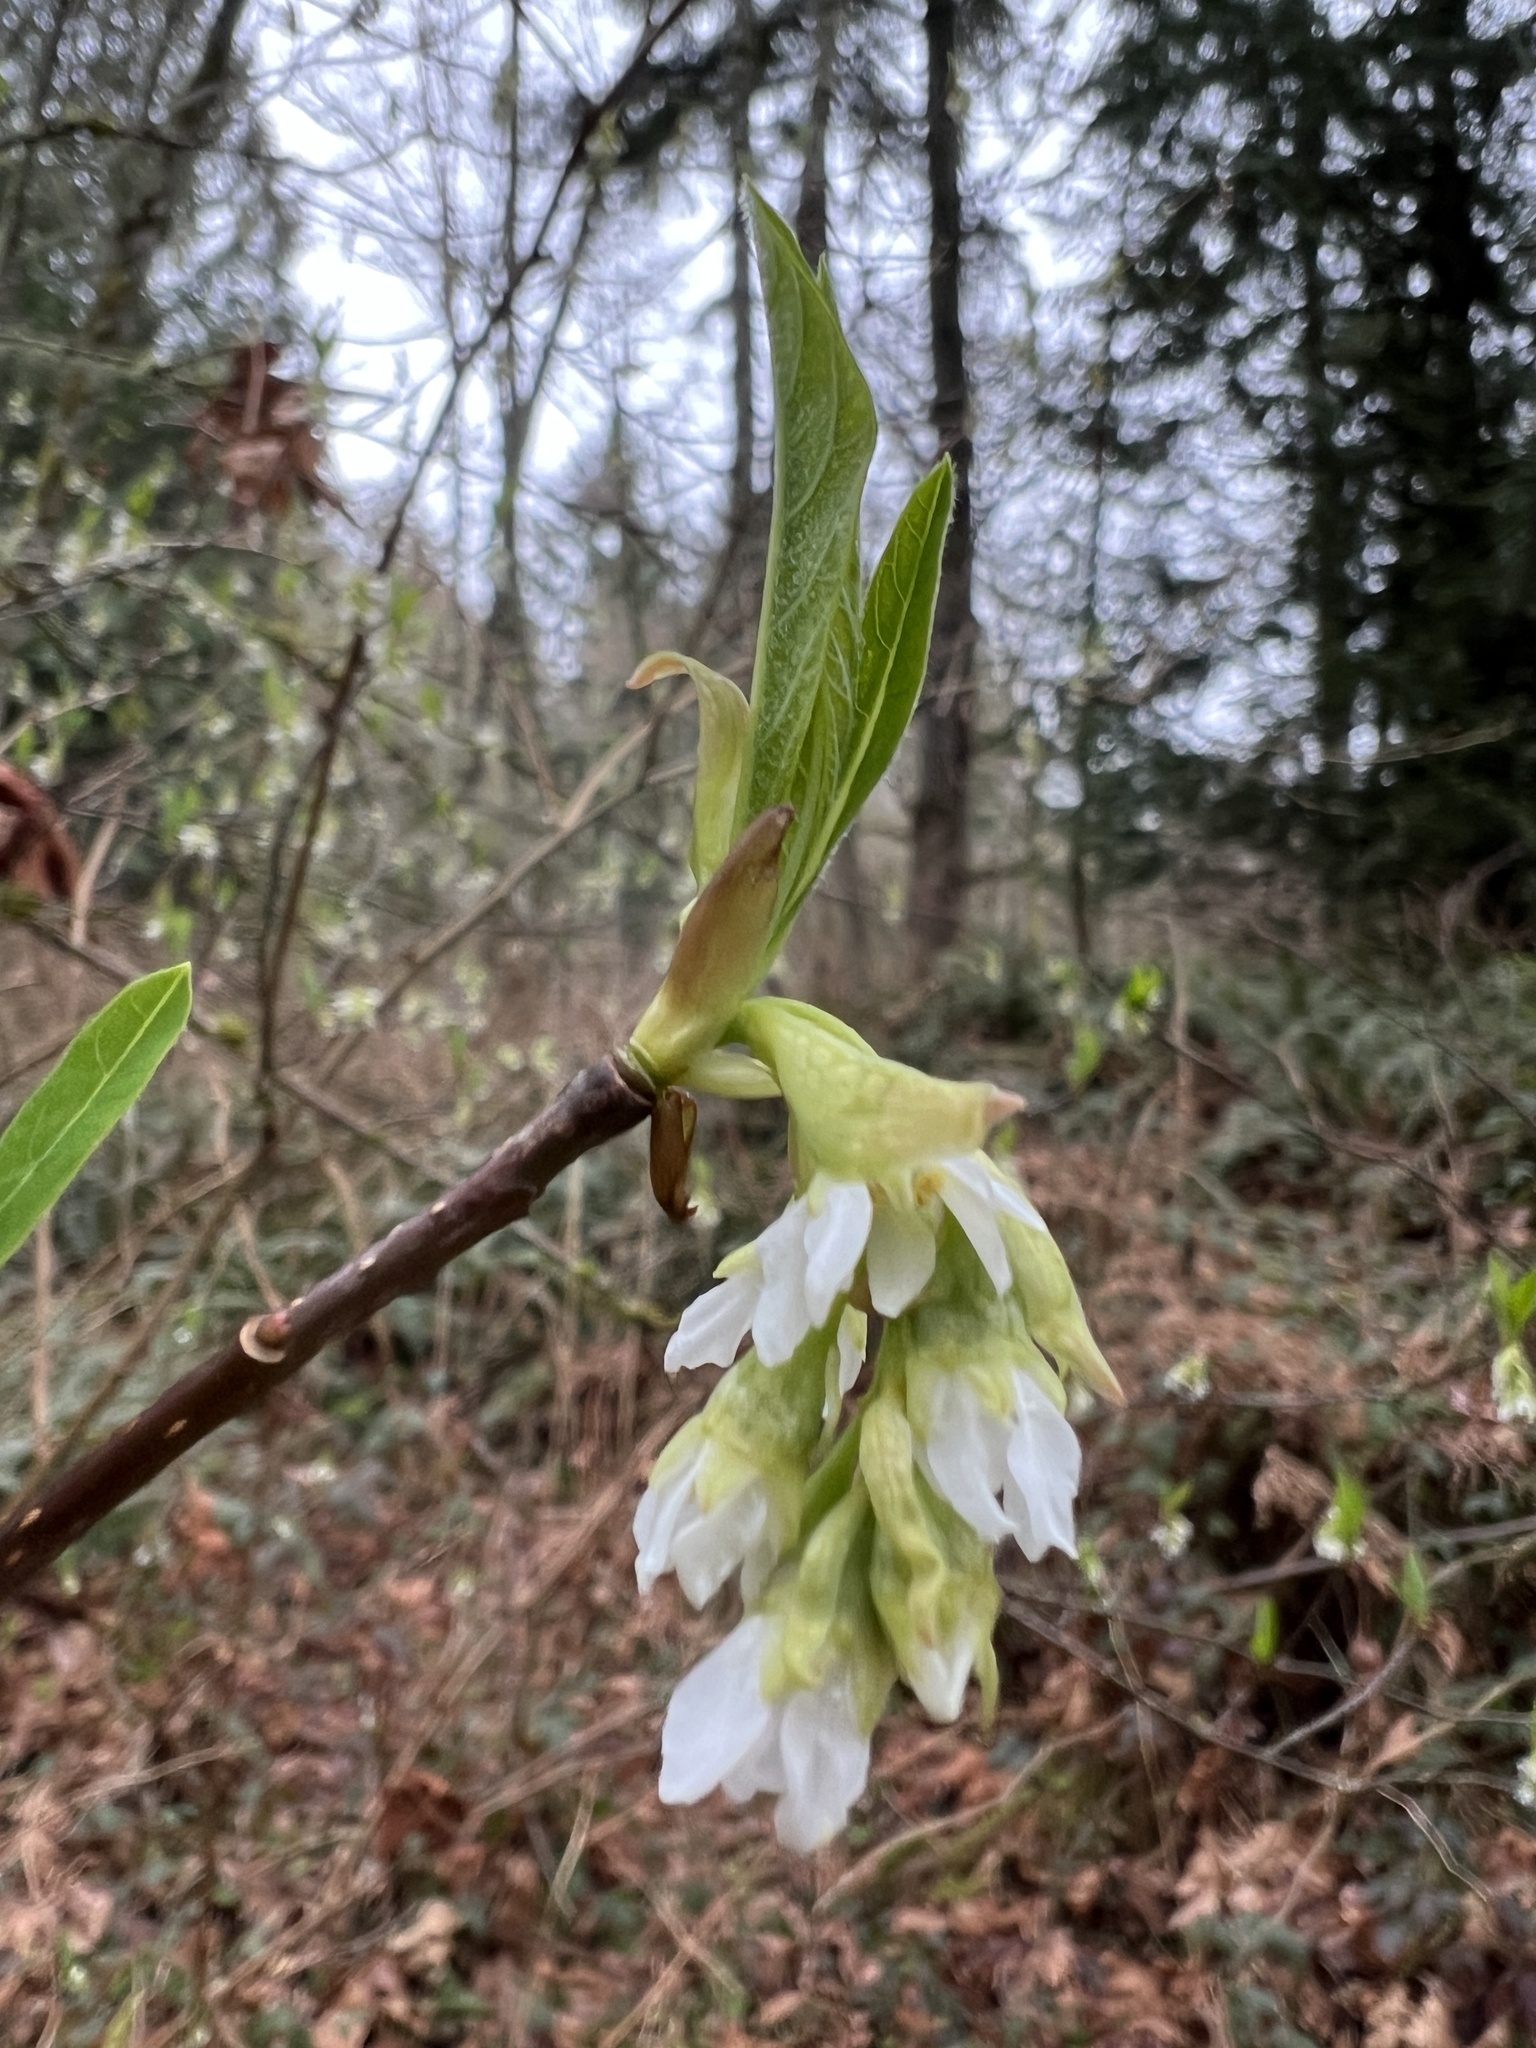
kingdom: Plantae
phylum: Tracheophyta
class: Magnoliopsida
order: Rosales
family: Rosaceae
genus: Oemleria
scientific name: Oemleria cerasiformis
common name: Osoberry
